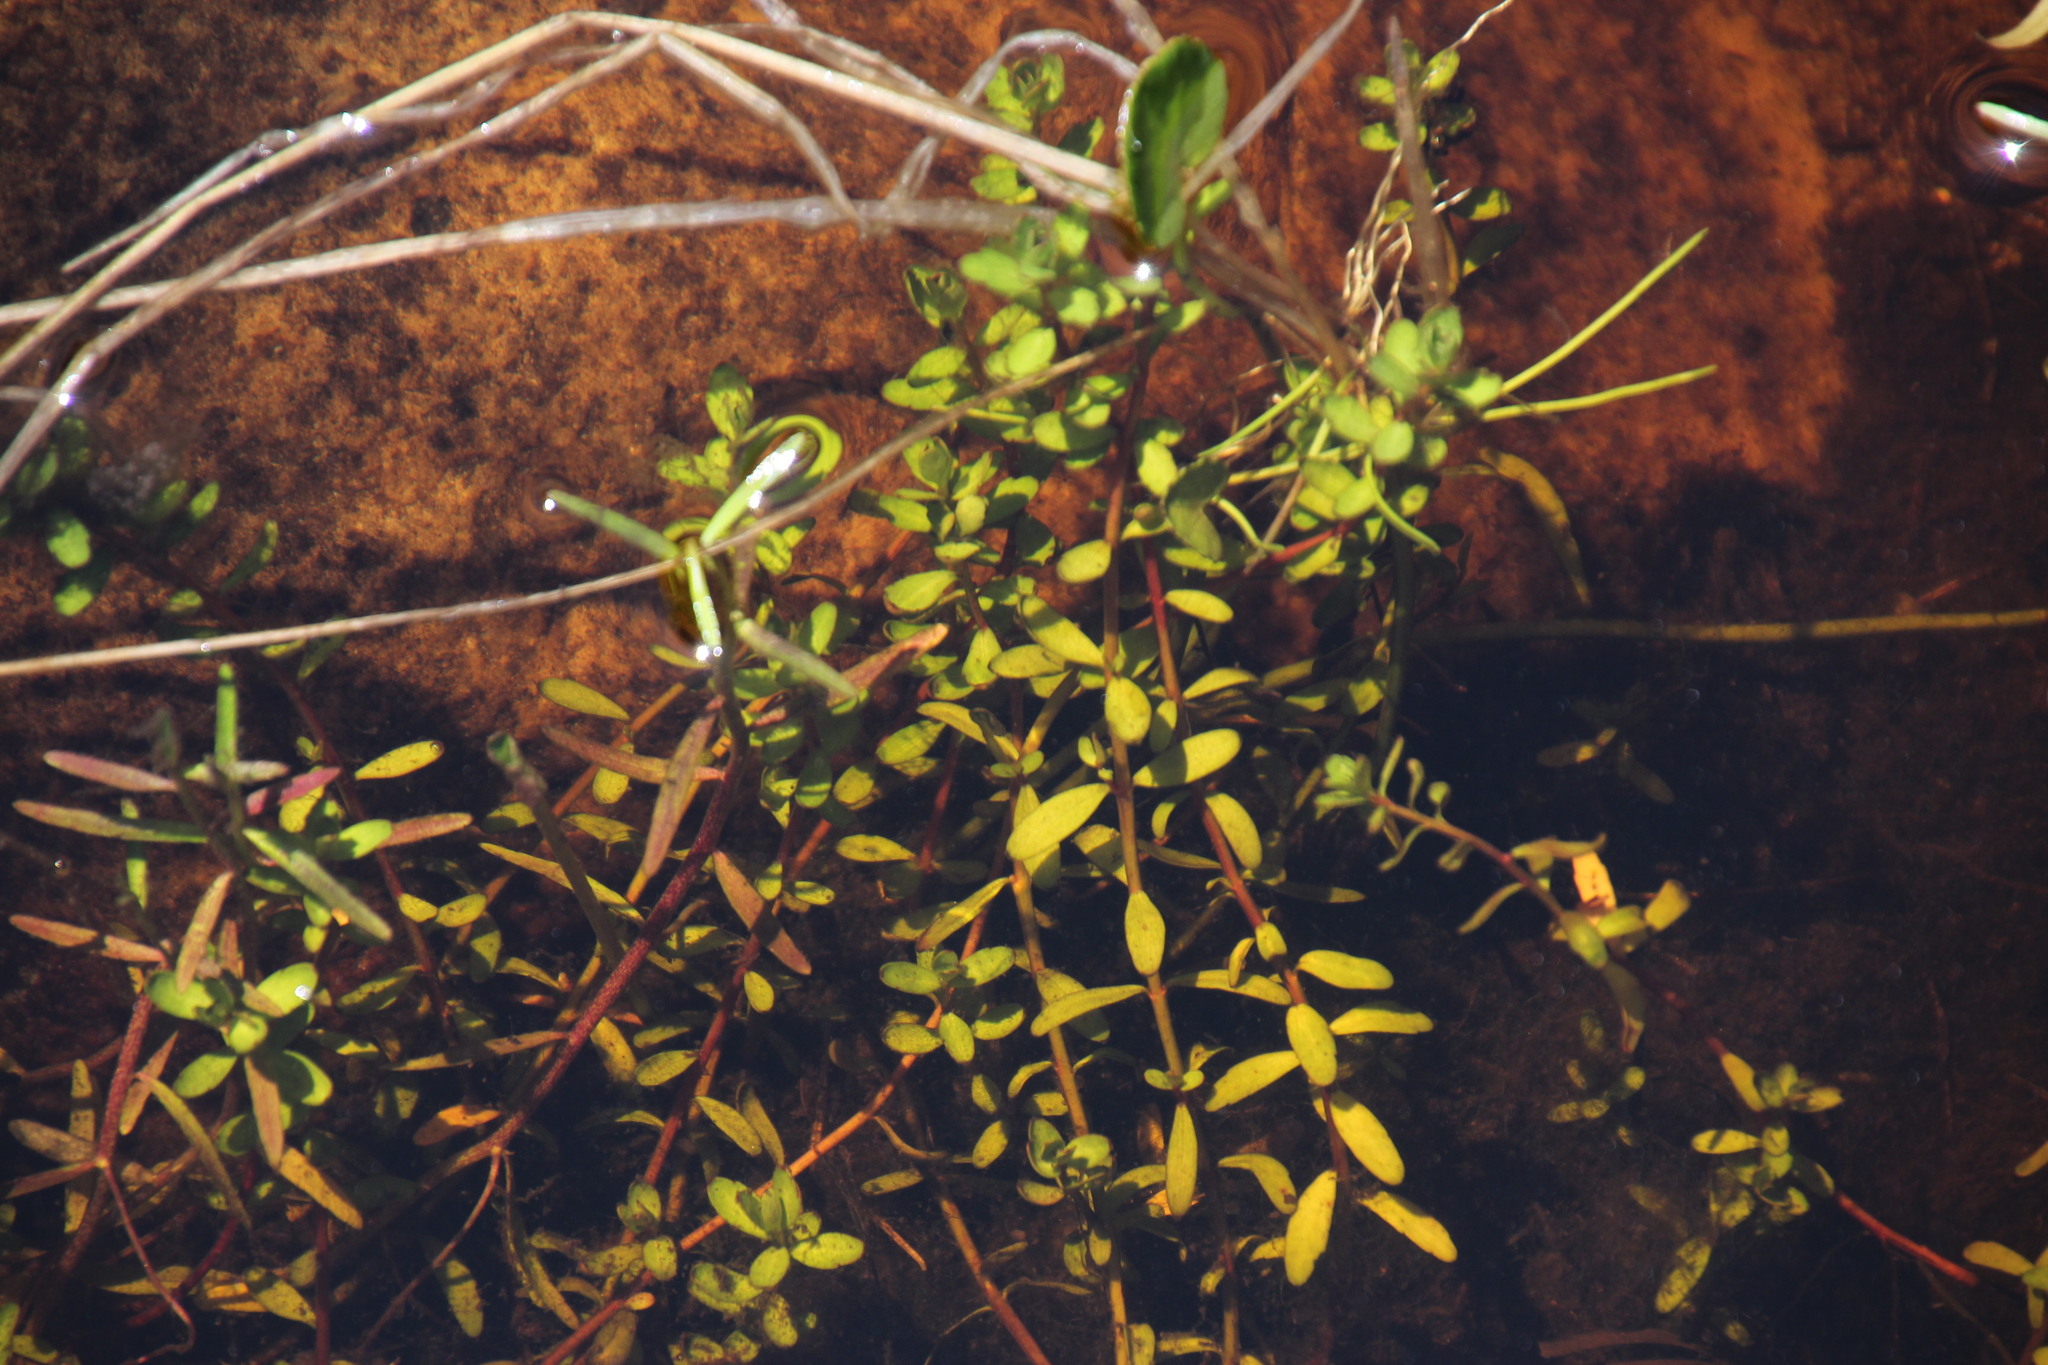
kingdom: Plantae
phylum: Tracheophyta
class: Magnoliopsida
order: Saxifragales
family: Haloragaceae
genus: Laurembergia
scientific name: Laurembergia repens
